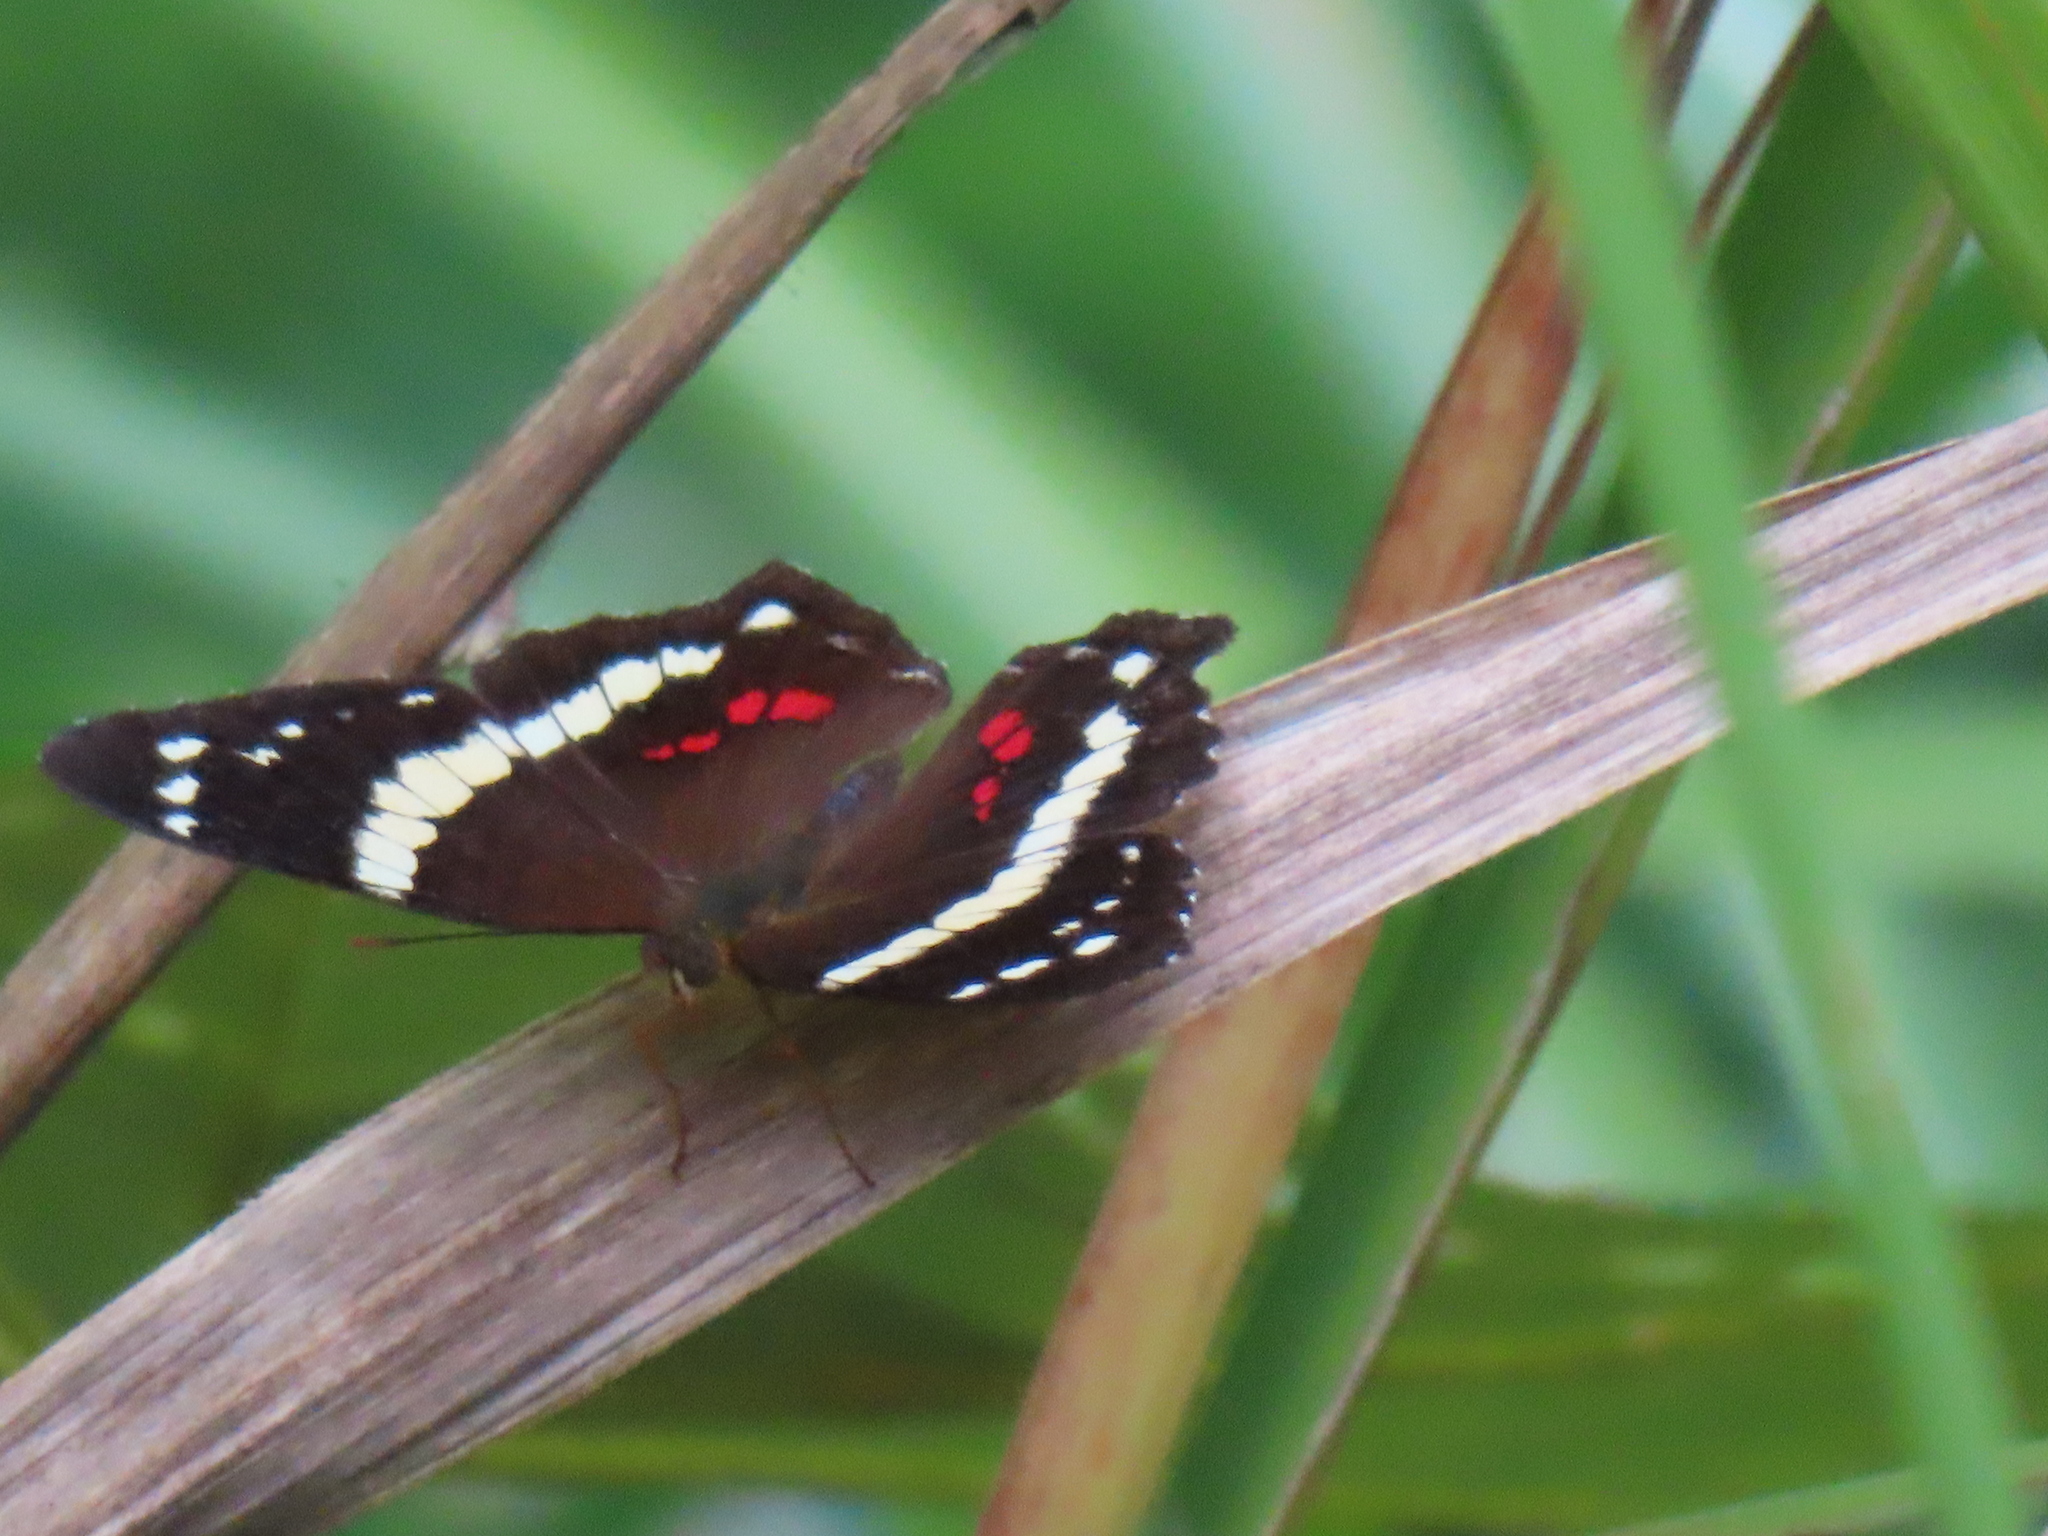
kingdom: Animalia
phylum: Arthropoda
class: Insecta
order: Lepidoptera
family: Nymphalidae
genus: Anartia
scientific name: Anartia fatima
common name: Banded peacock
